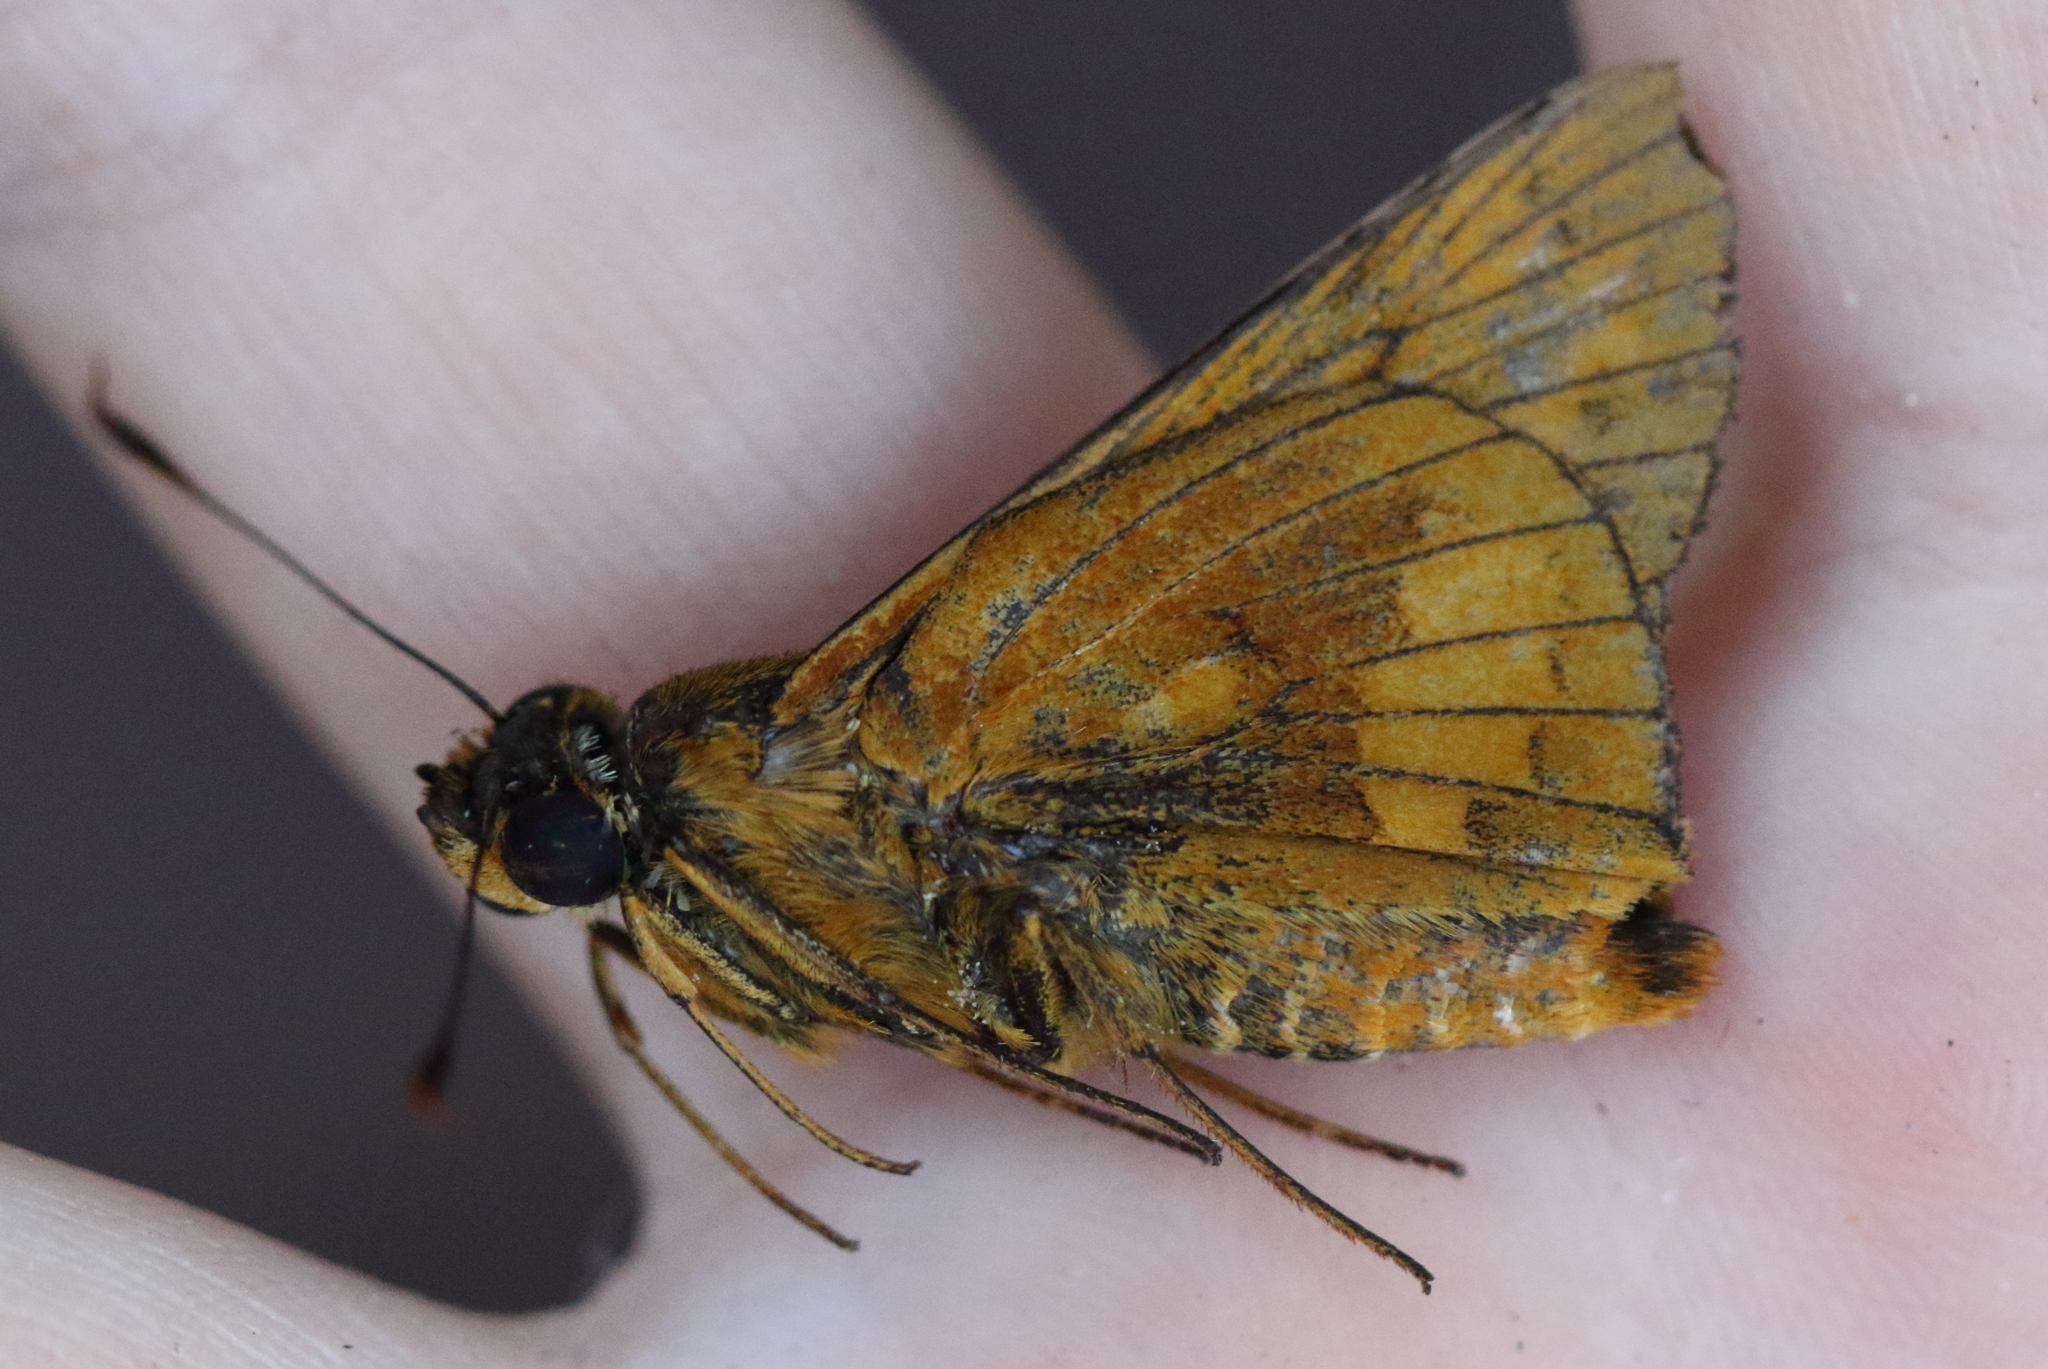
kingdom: Animalia
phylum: Arthropoda
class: Insecta
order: Lepidoptera
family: Hesperiidae
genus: Cephrenes
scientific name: Cephrenes augiades
